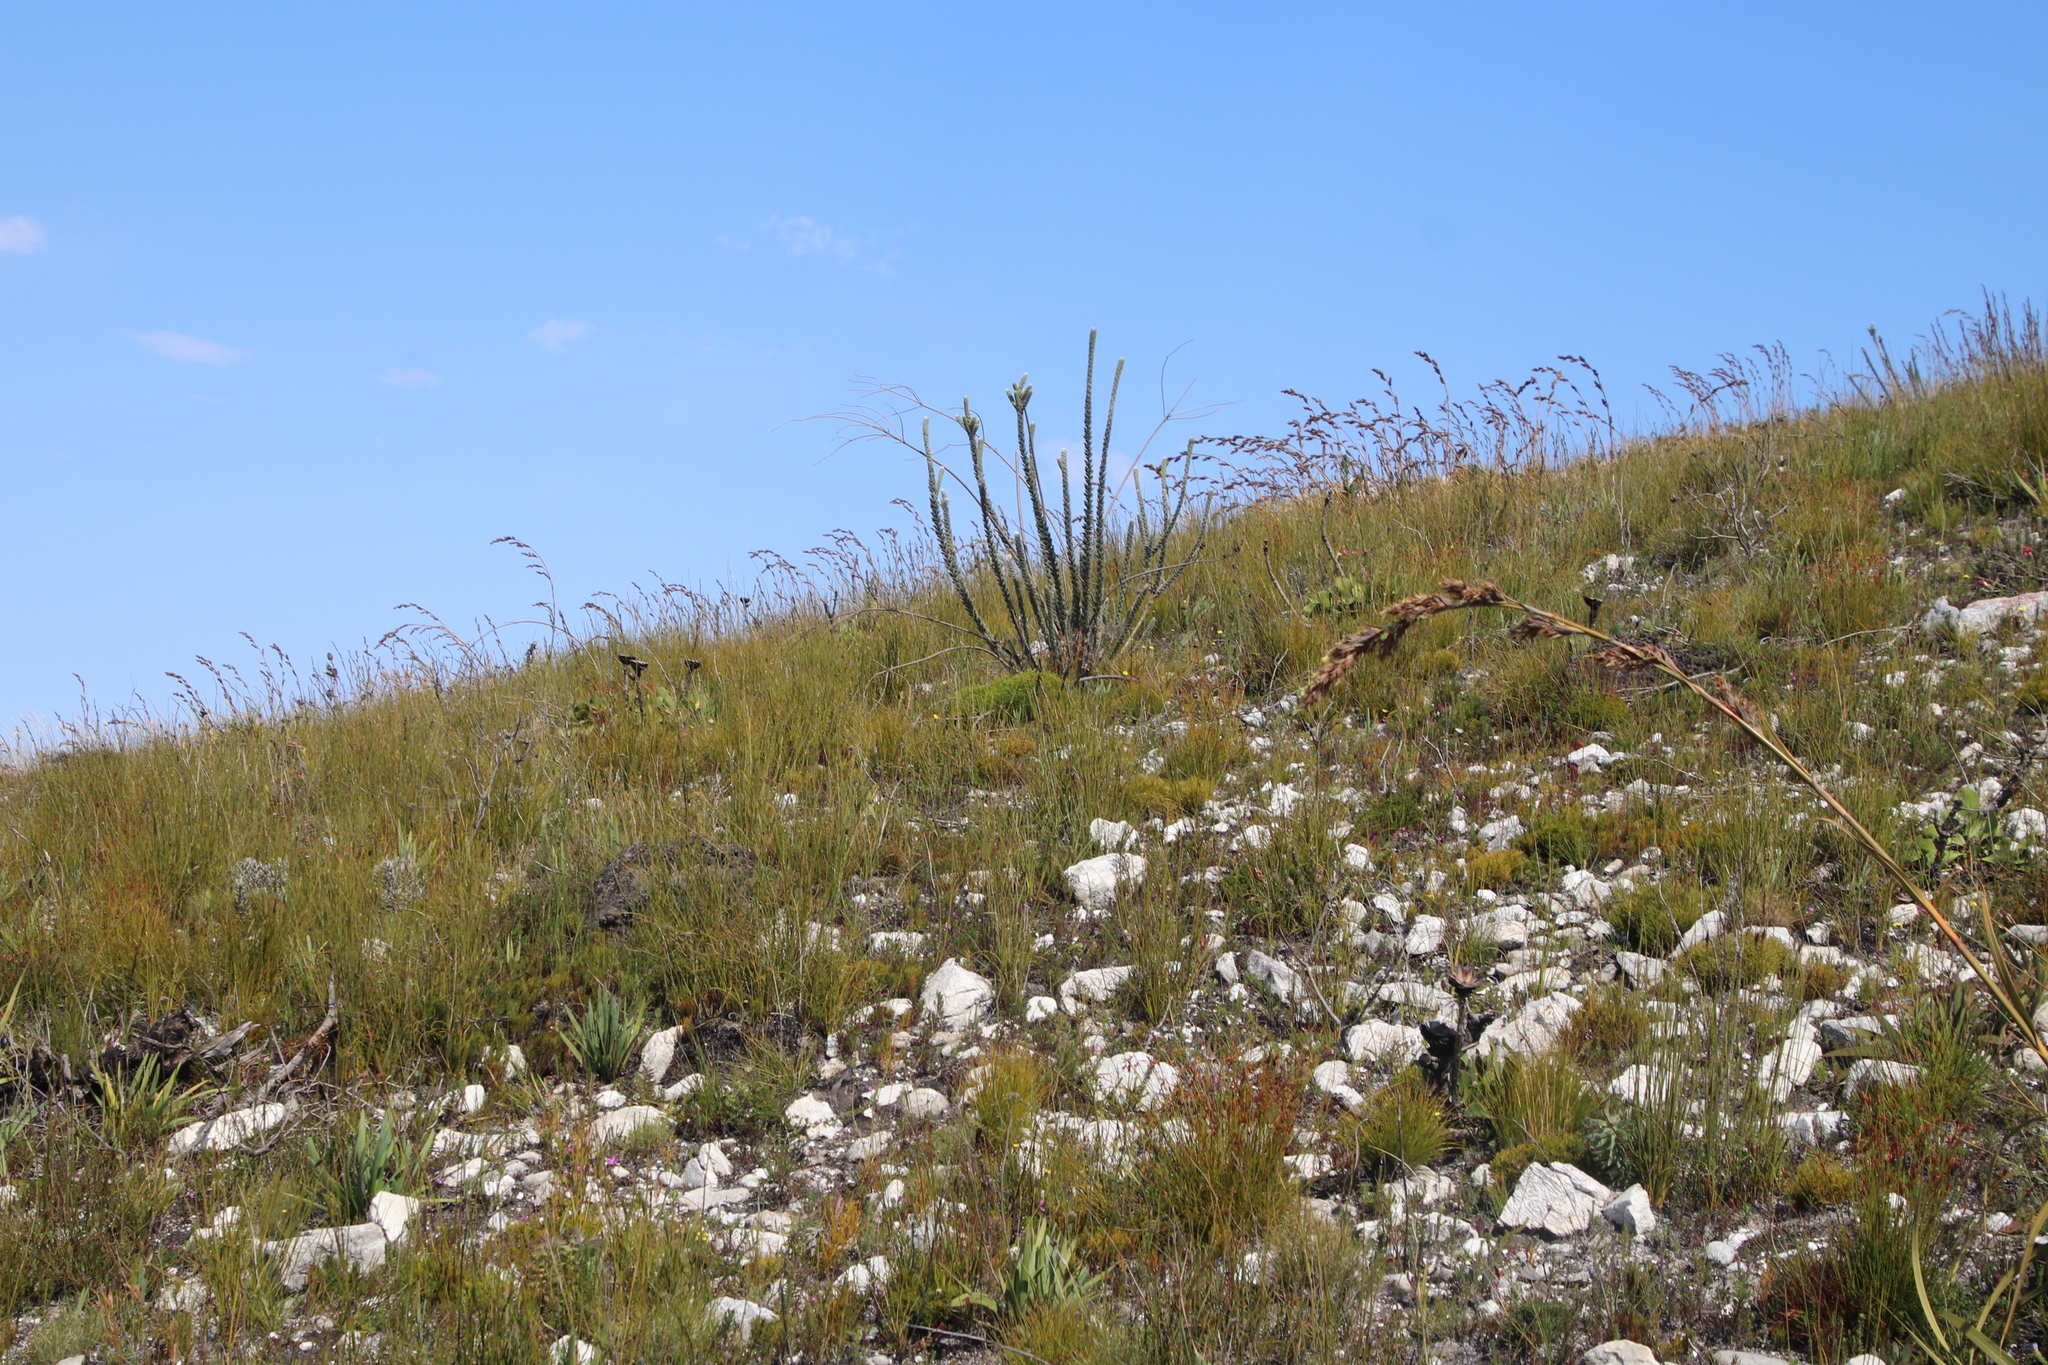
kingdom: Plantae
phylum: Tracheophyta
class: Magnoliopsida
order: Fabales
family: Fabaceae
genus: Liparia
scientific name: Liparia vestita
